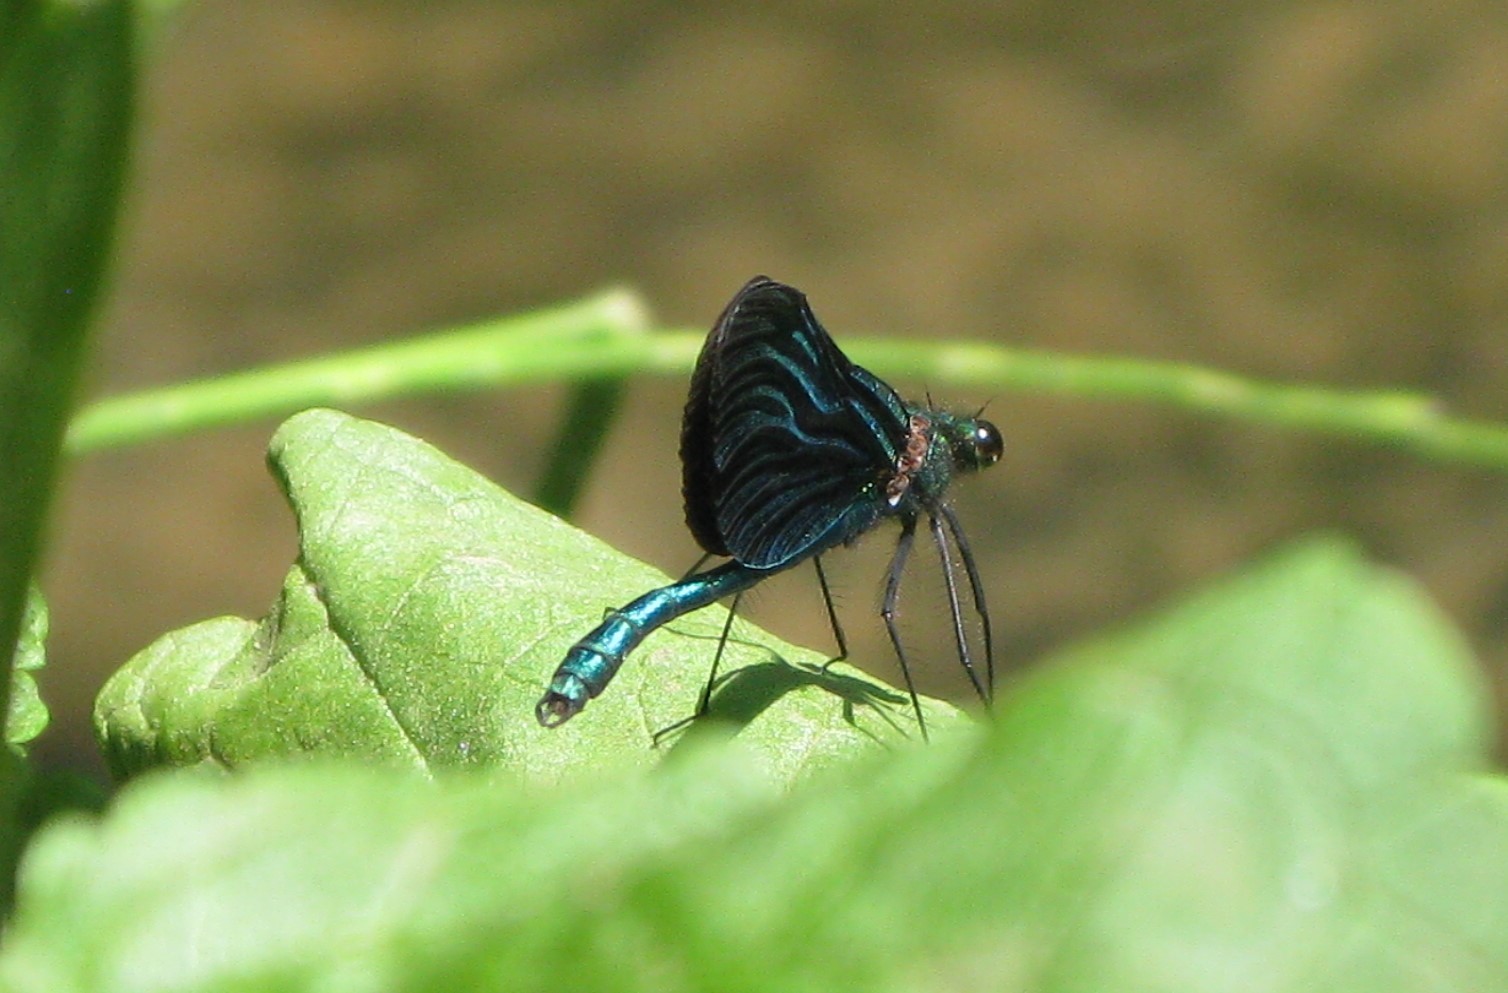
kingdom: Animalia
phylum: Arthropoda
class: Insecta
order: Odonata
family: Calopterygidae
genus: Calopteryx
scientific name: Calopteryx virgo
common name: Beautiful demoiselle
